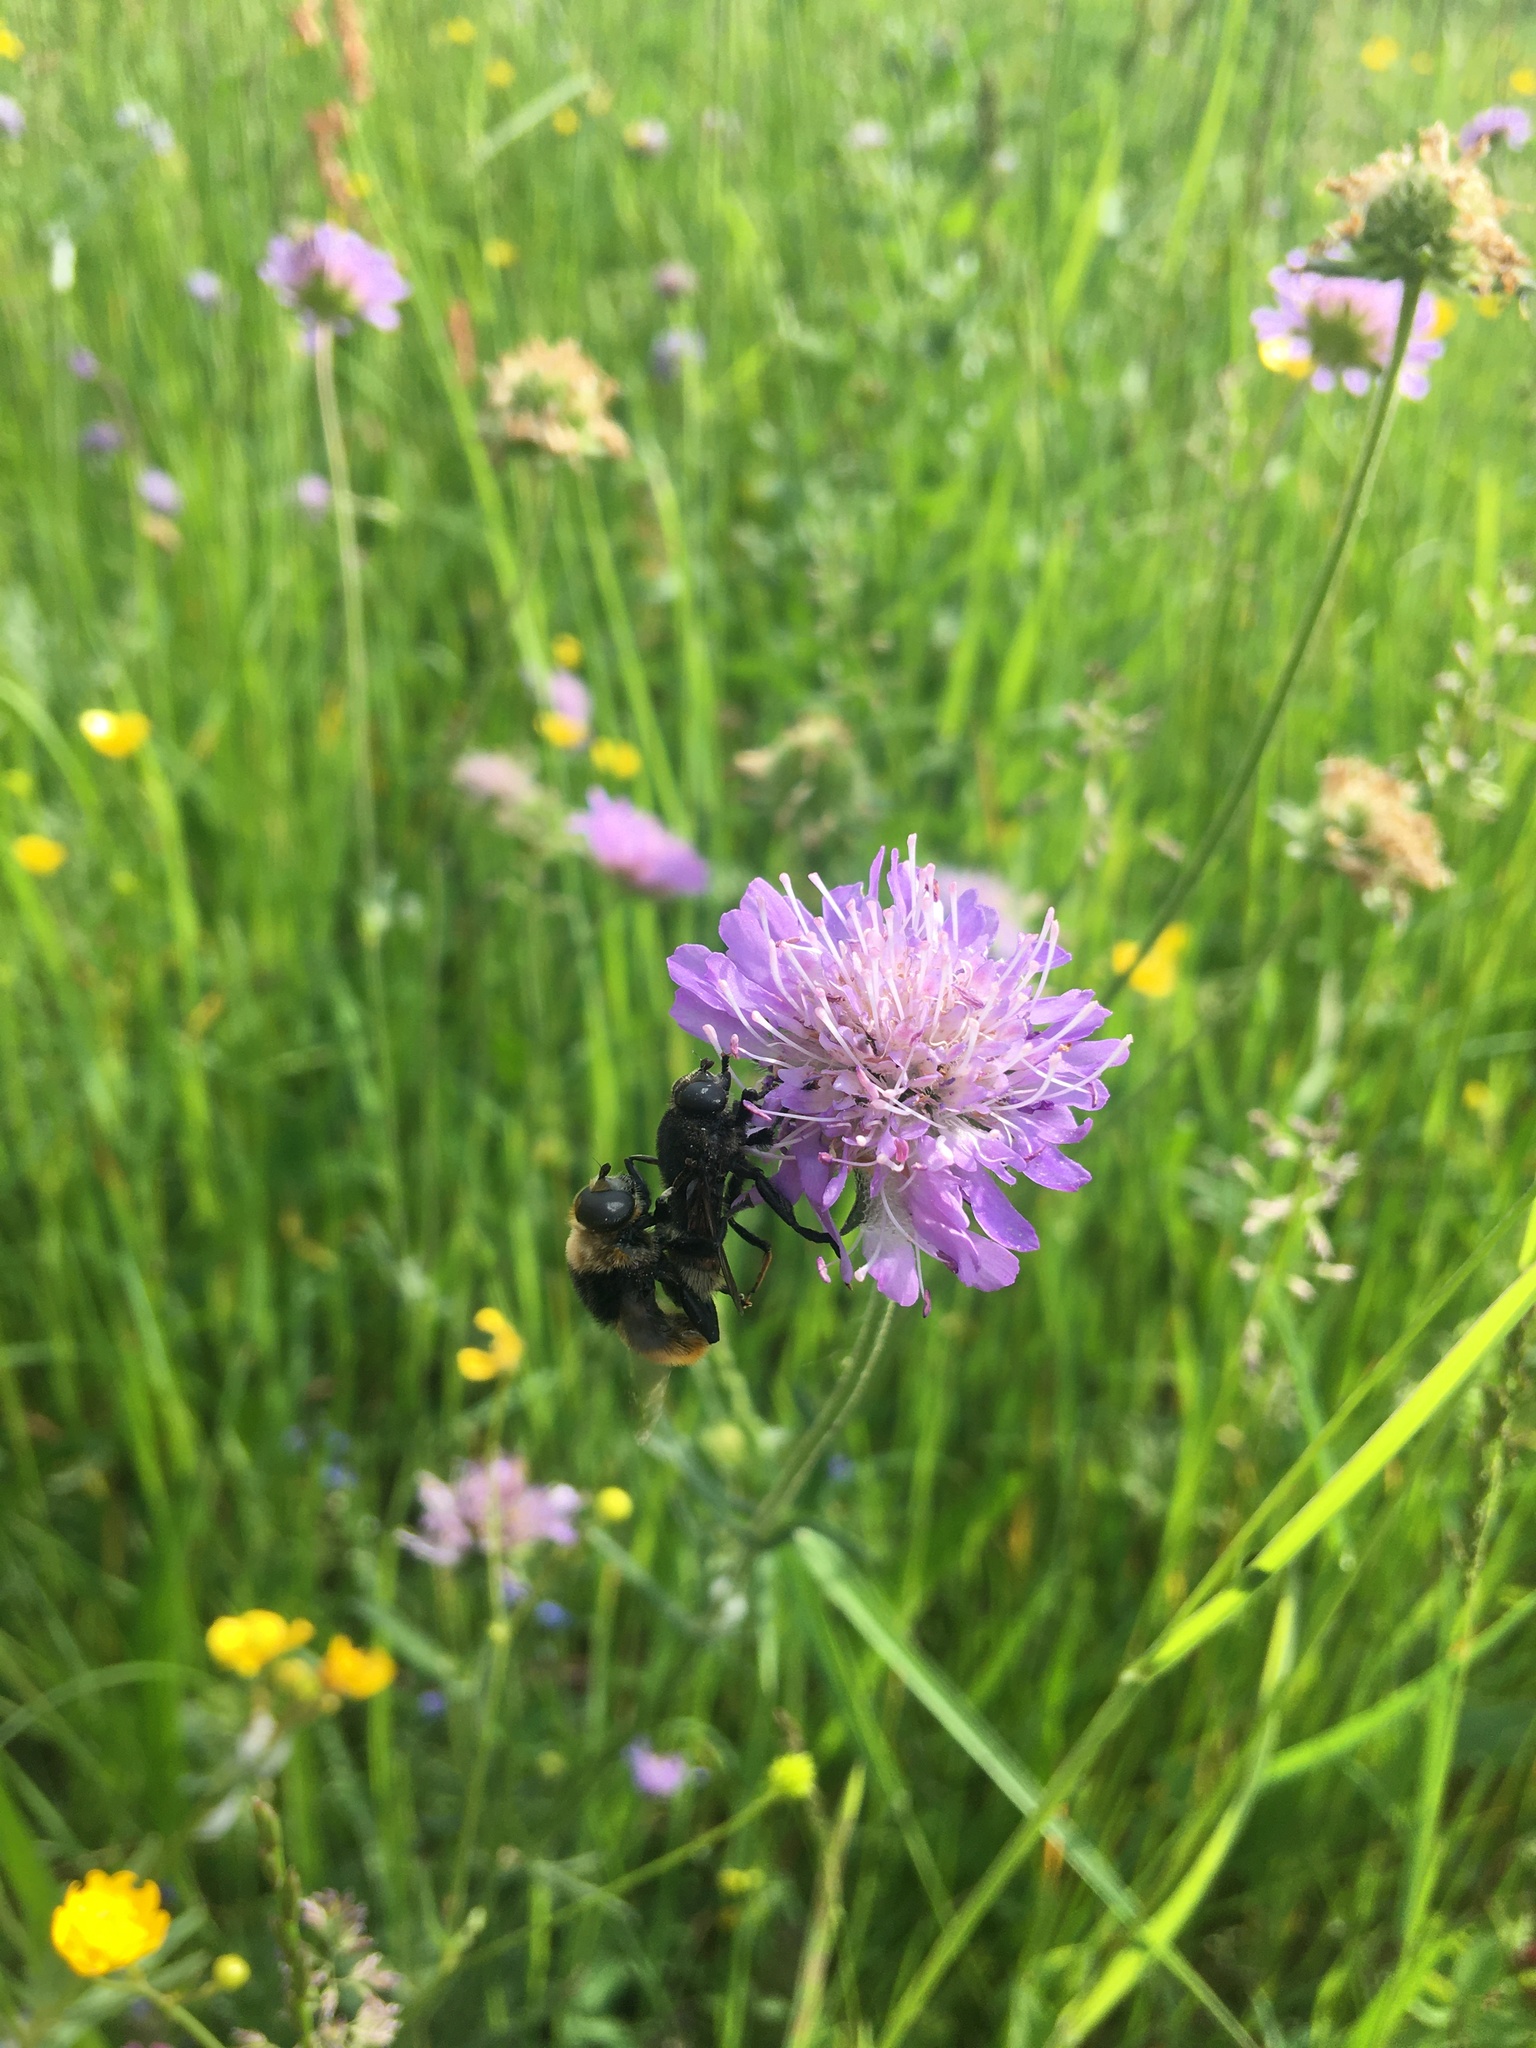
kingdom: Animalia
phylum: Arthropoda
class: Insecta
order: Diptera
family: Syrphidae
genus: Merodon
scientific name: Merodon equestris
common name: Greater bulb-fly
